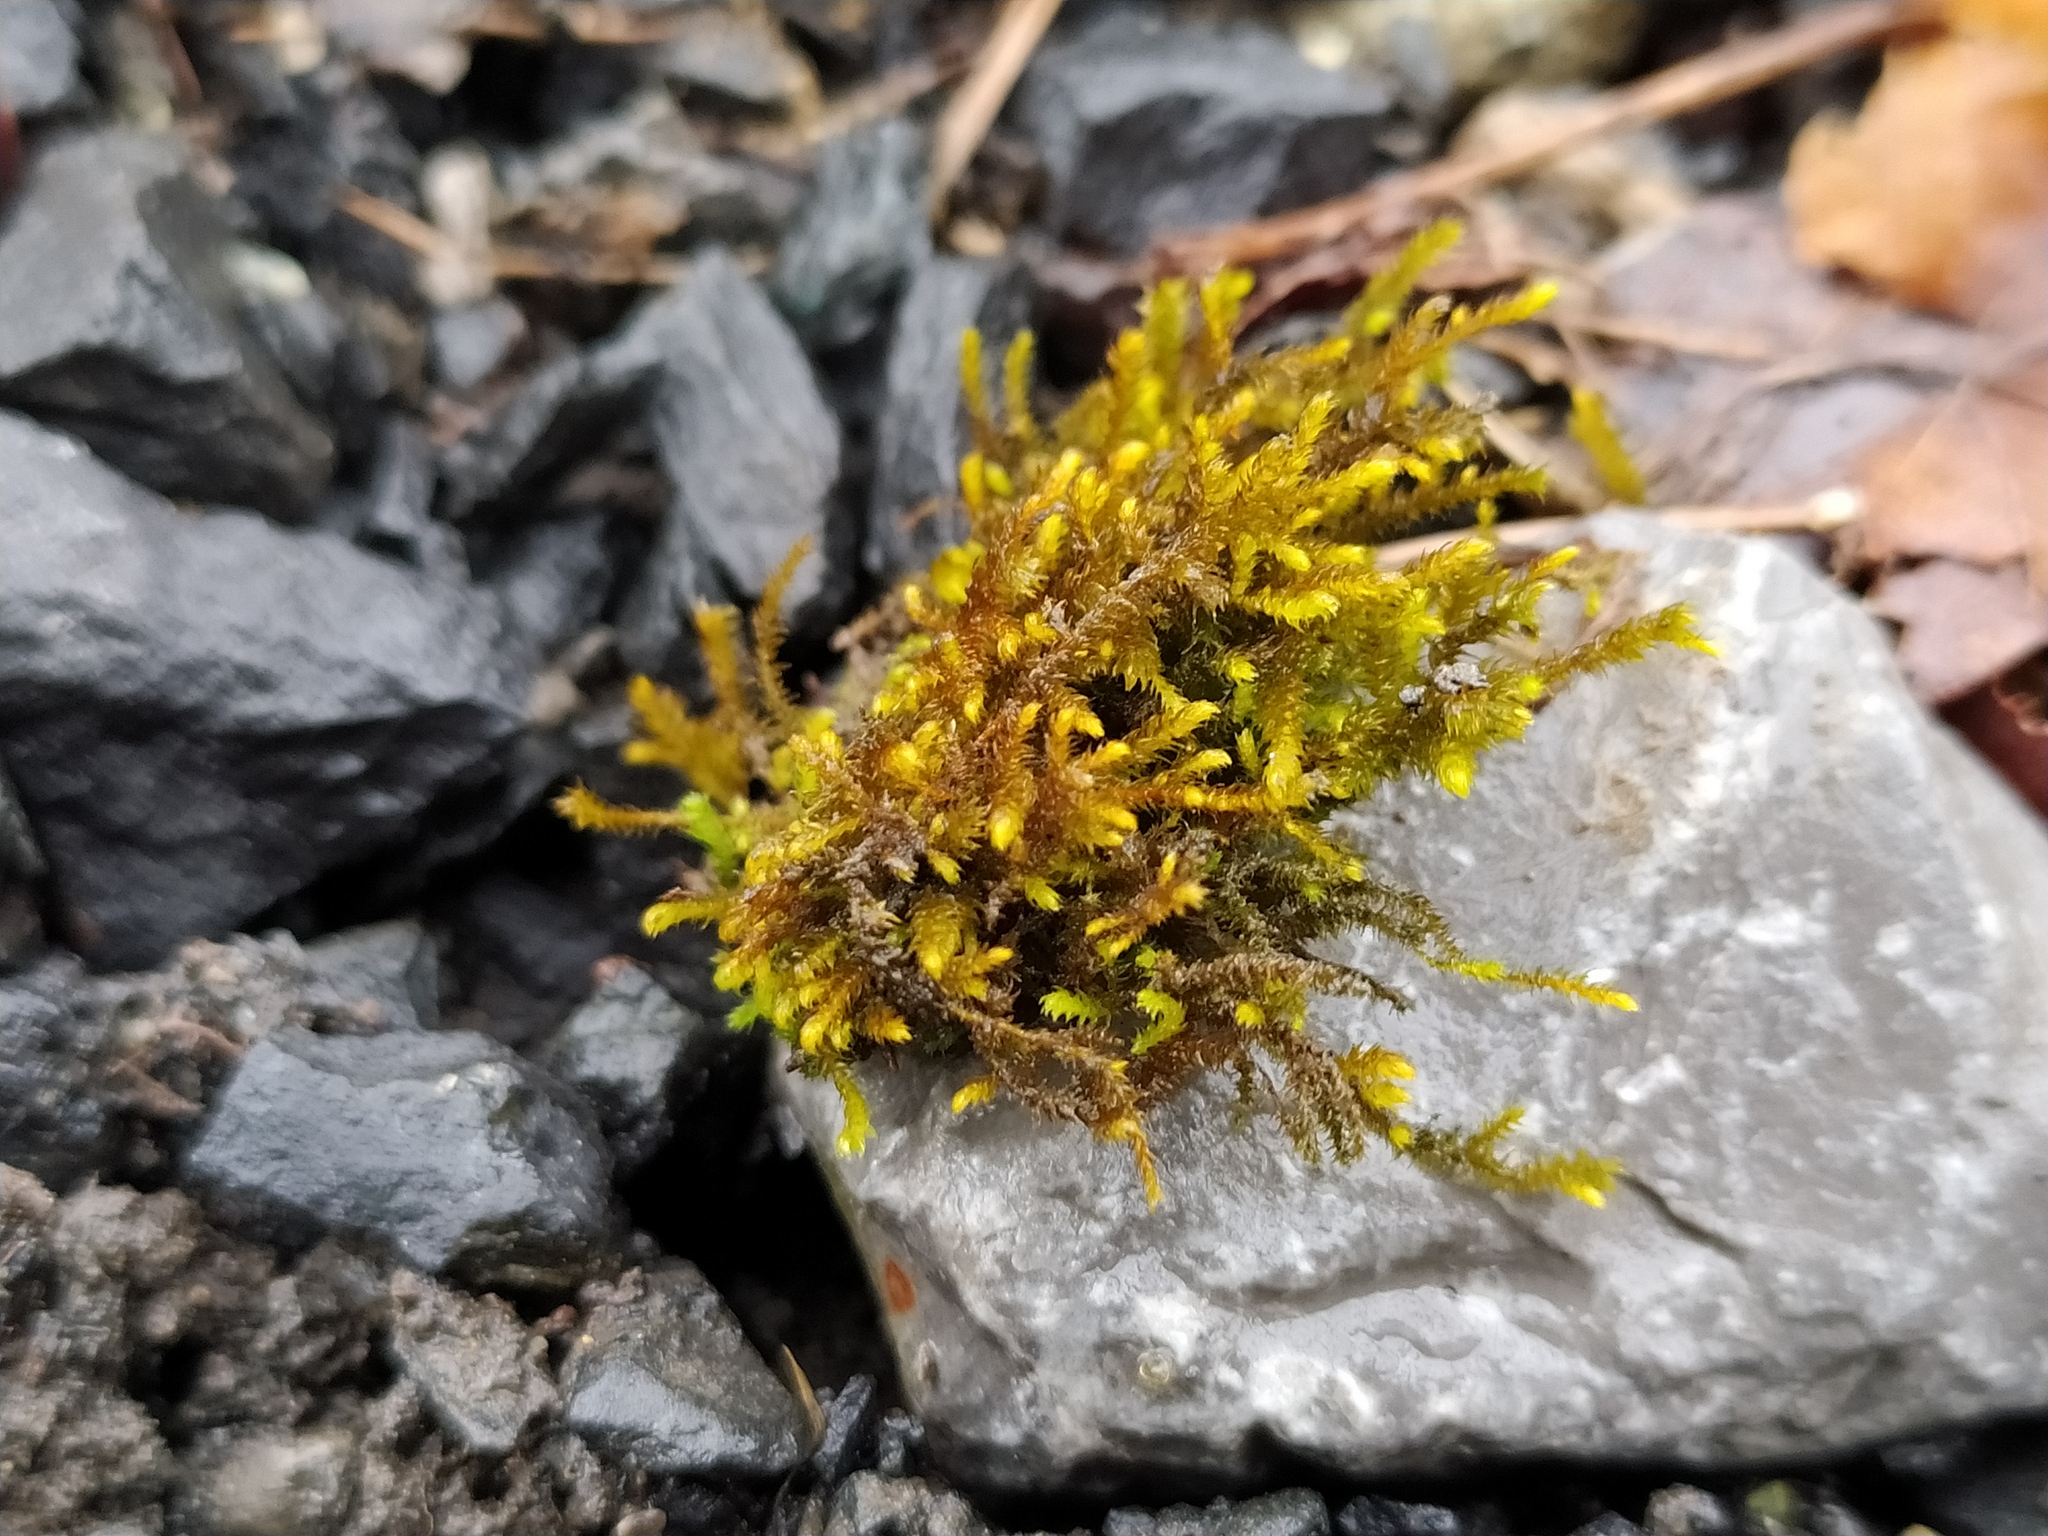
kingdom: Plantae
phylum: Bryophyta
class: Bryopsida
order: Hypnales
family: Pseudoleskeaceae
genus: Lescuraea
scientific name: Lescuraea incurvata
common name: Brown mountain leskea
